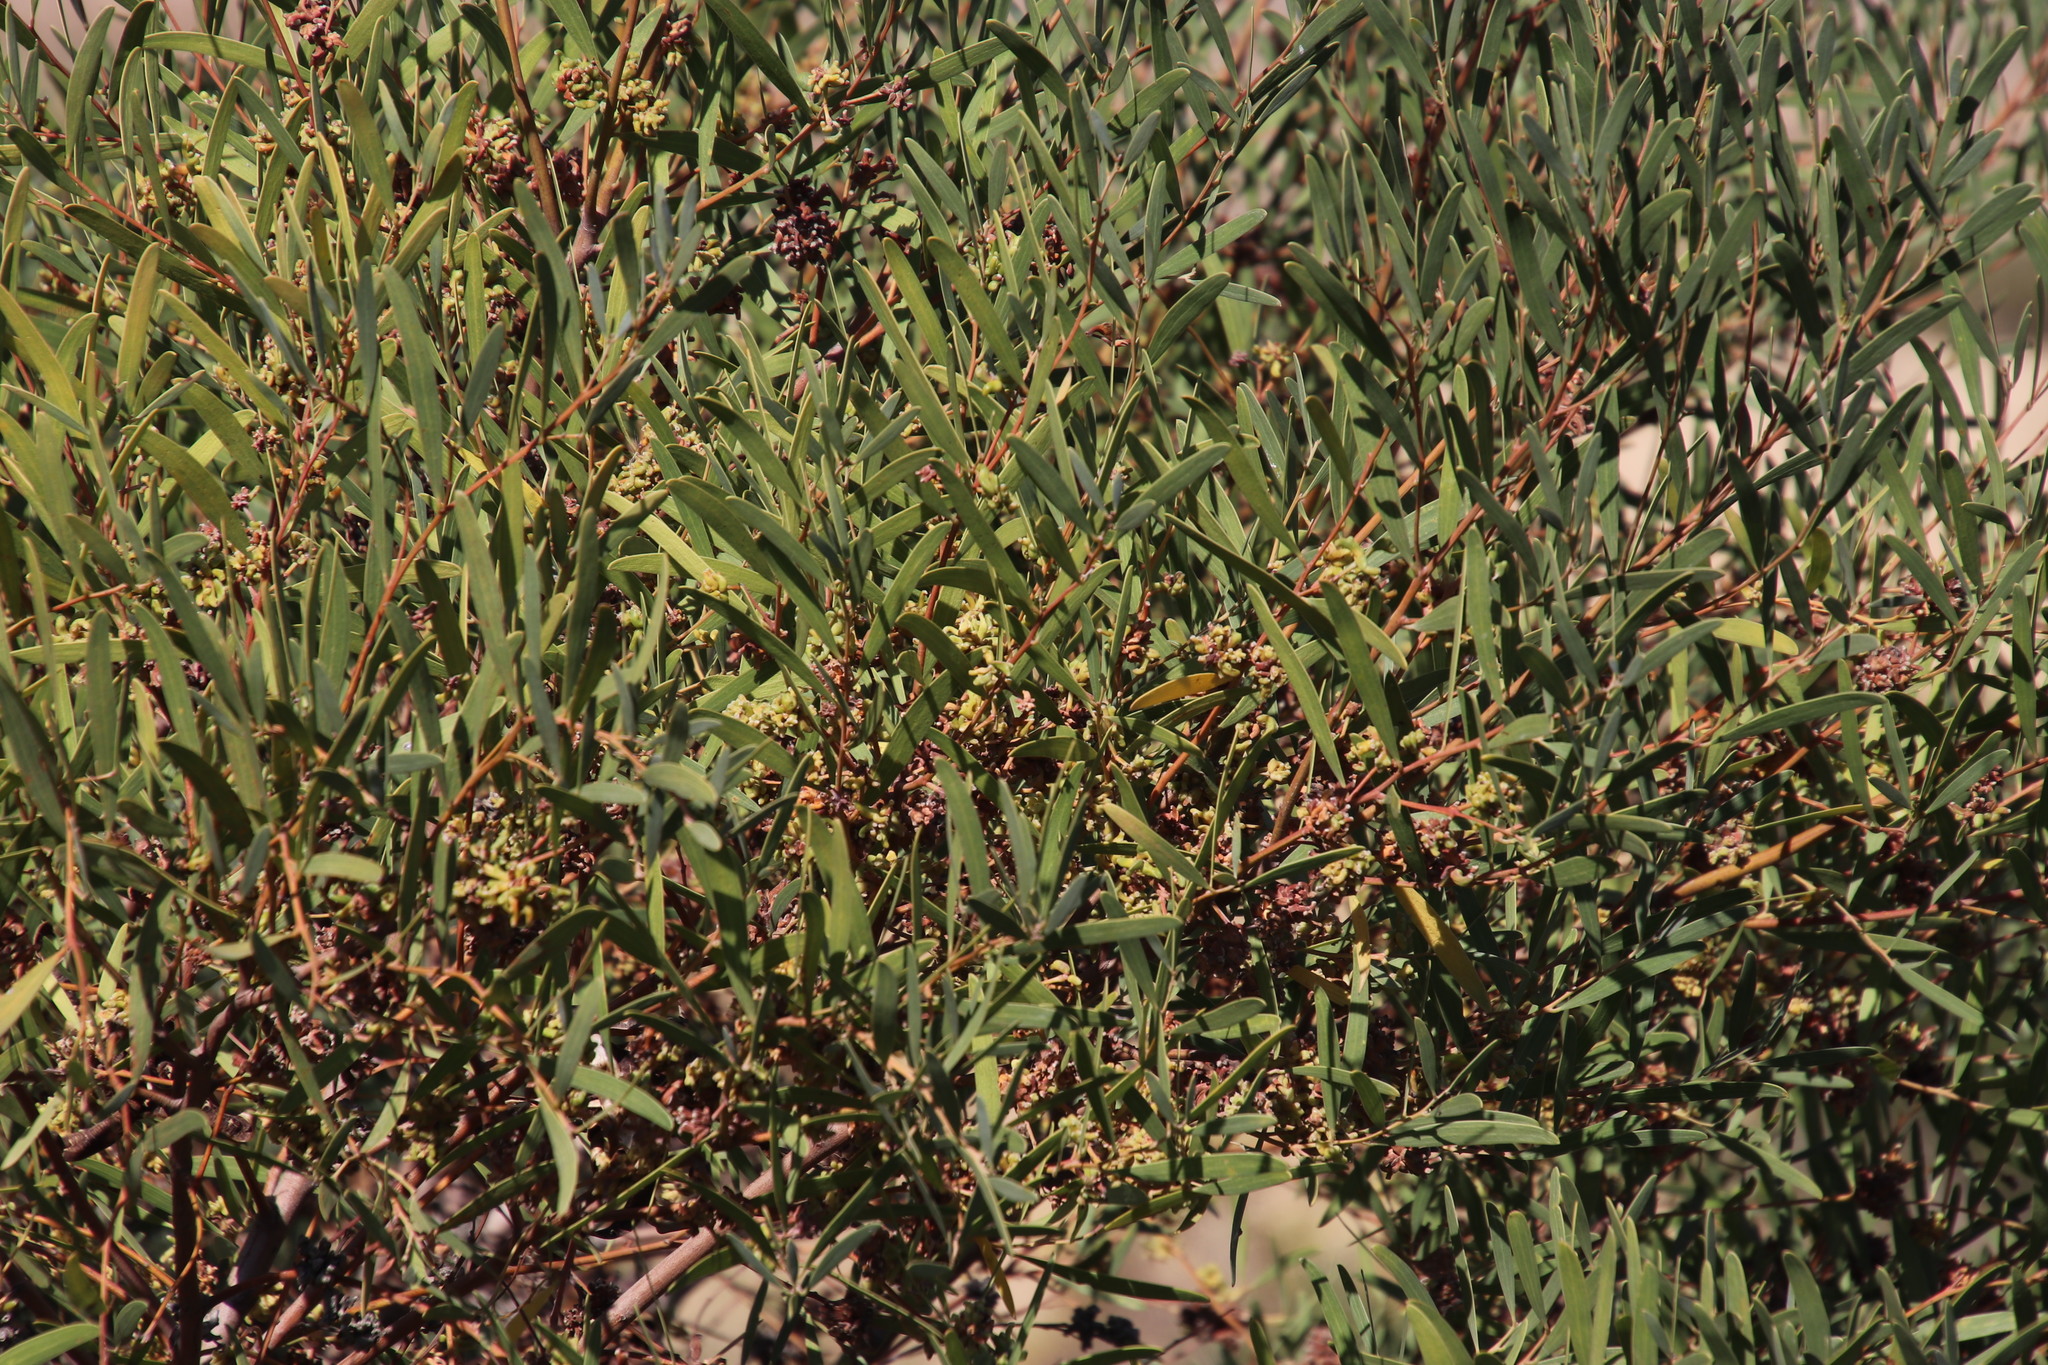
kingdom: Plantae
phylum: Tracheophyta
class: Magnoliopsida
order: Fabales
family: Fabaceae
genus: Acacia
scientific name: Acacia cyclops
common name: Coastal wattle
